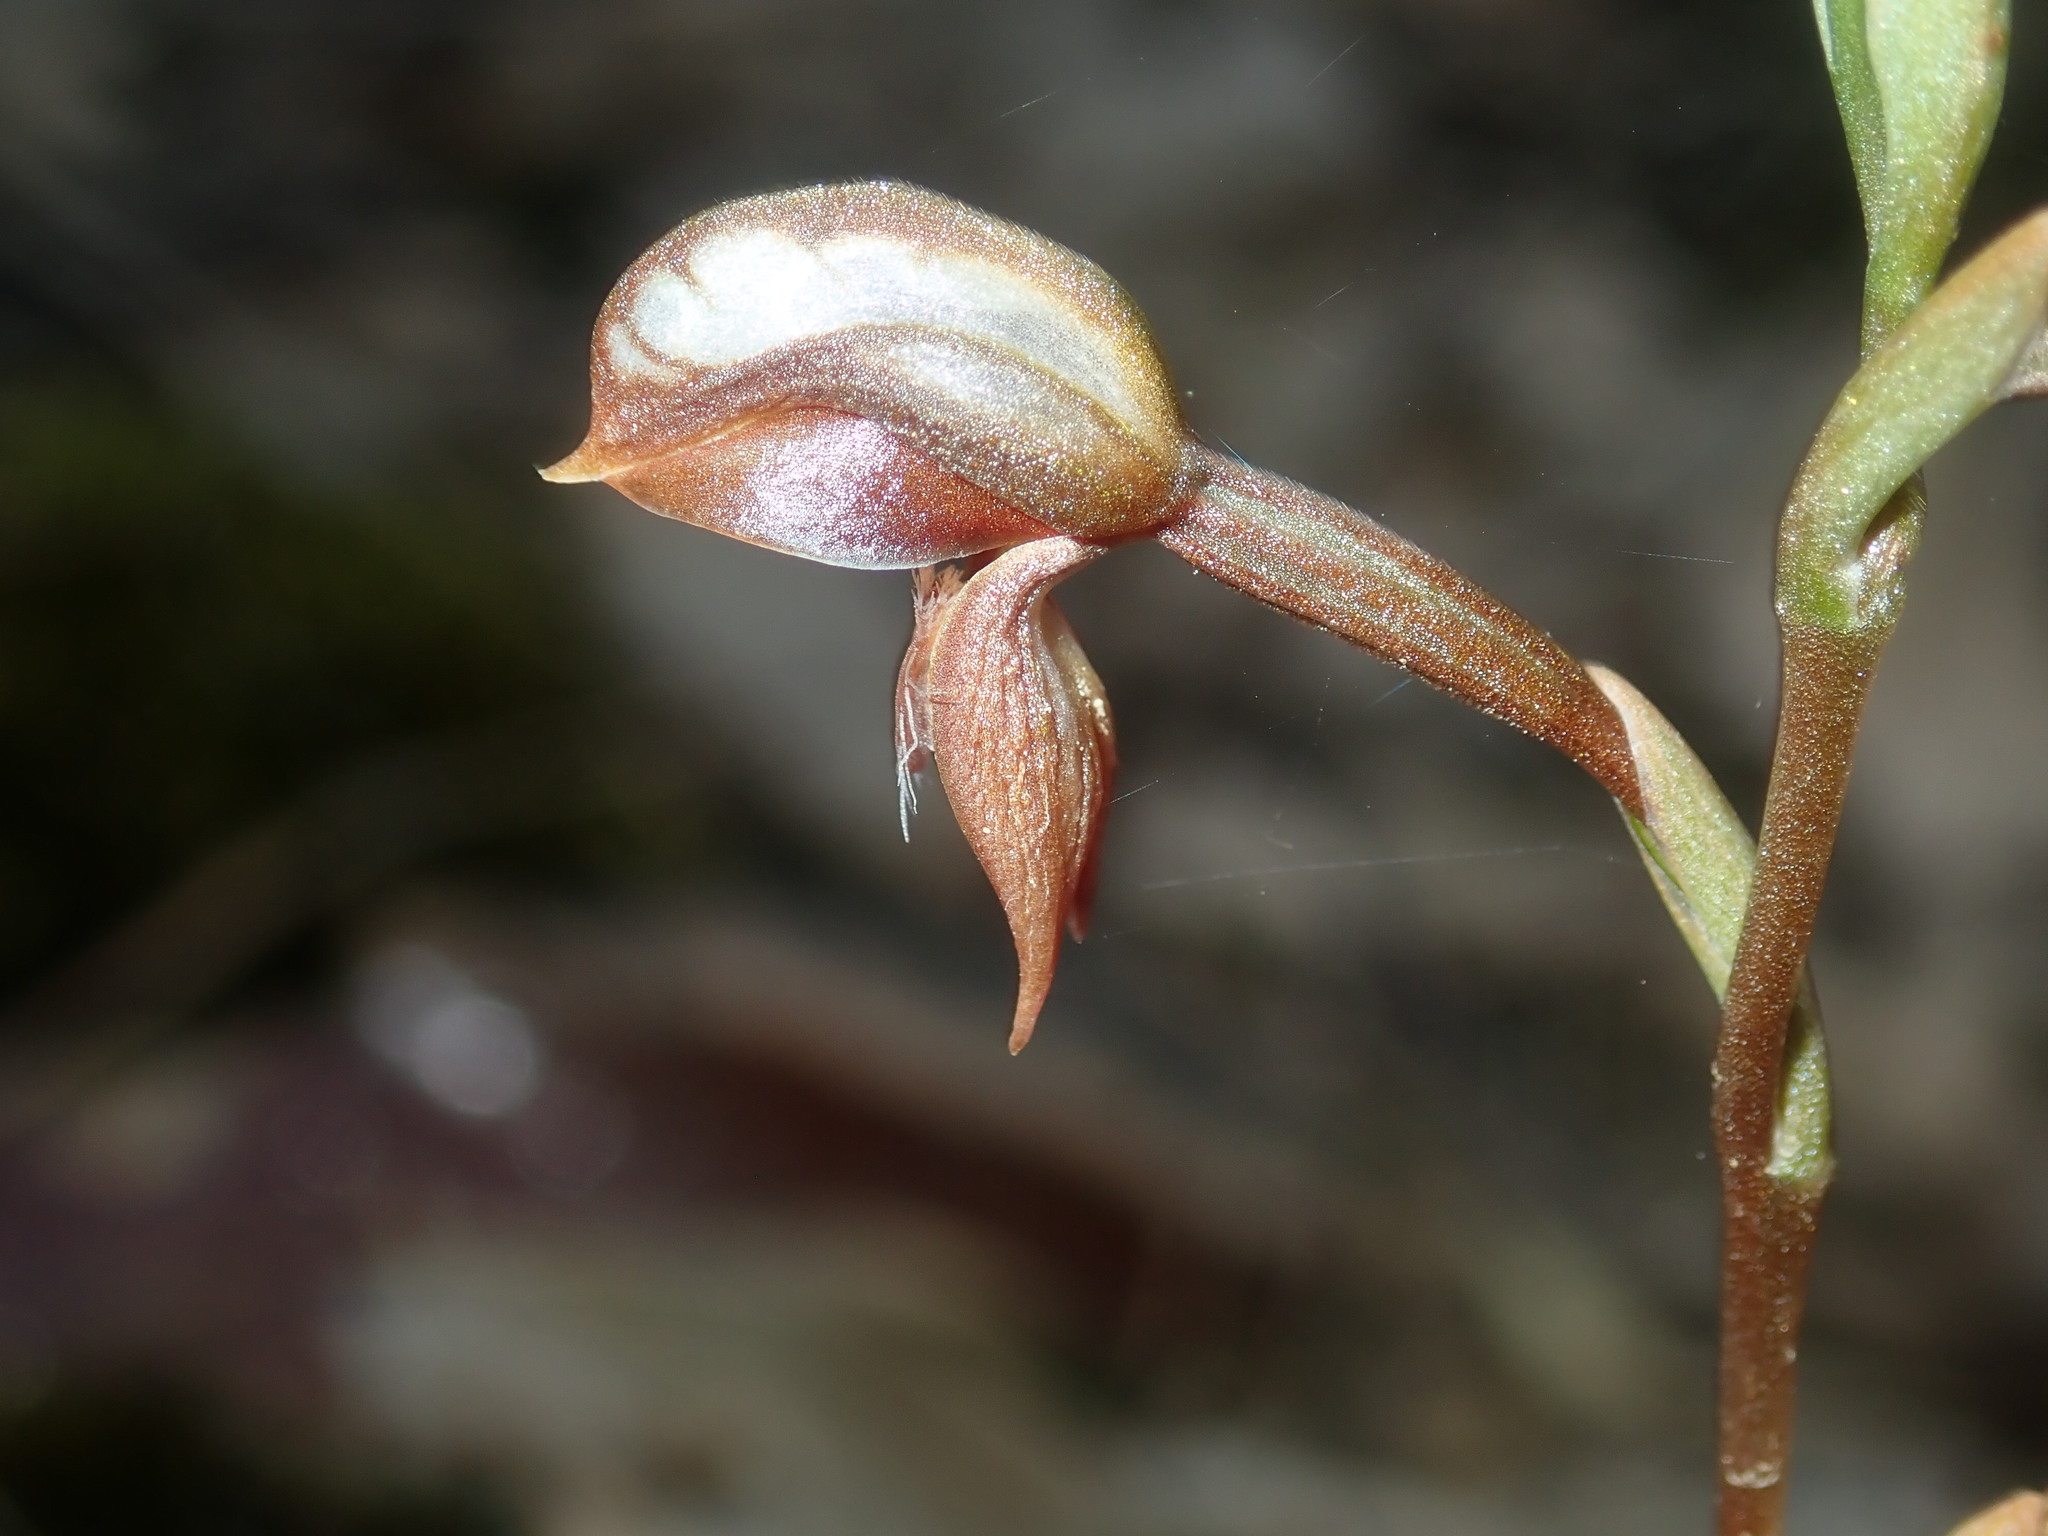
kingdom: Plantae
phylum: Tracheophyta
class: Liliopsida
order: Asparagales
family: Orchidaceae
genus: Pterostylis
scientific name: Pterostylis rufa
